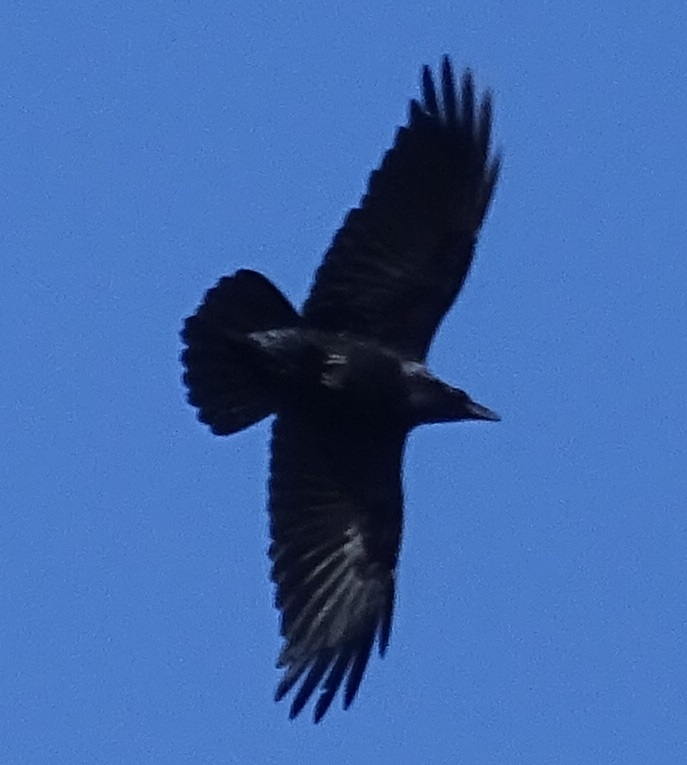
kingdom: Animalia
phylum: Chordata
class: Aves
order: Passeriformes
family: Corvidae
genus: Corvus
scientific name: Corvus corax
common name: Common raven
